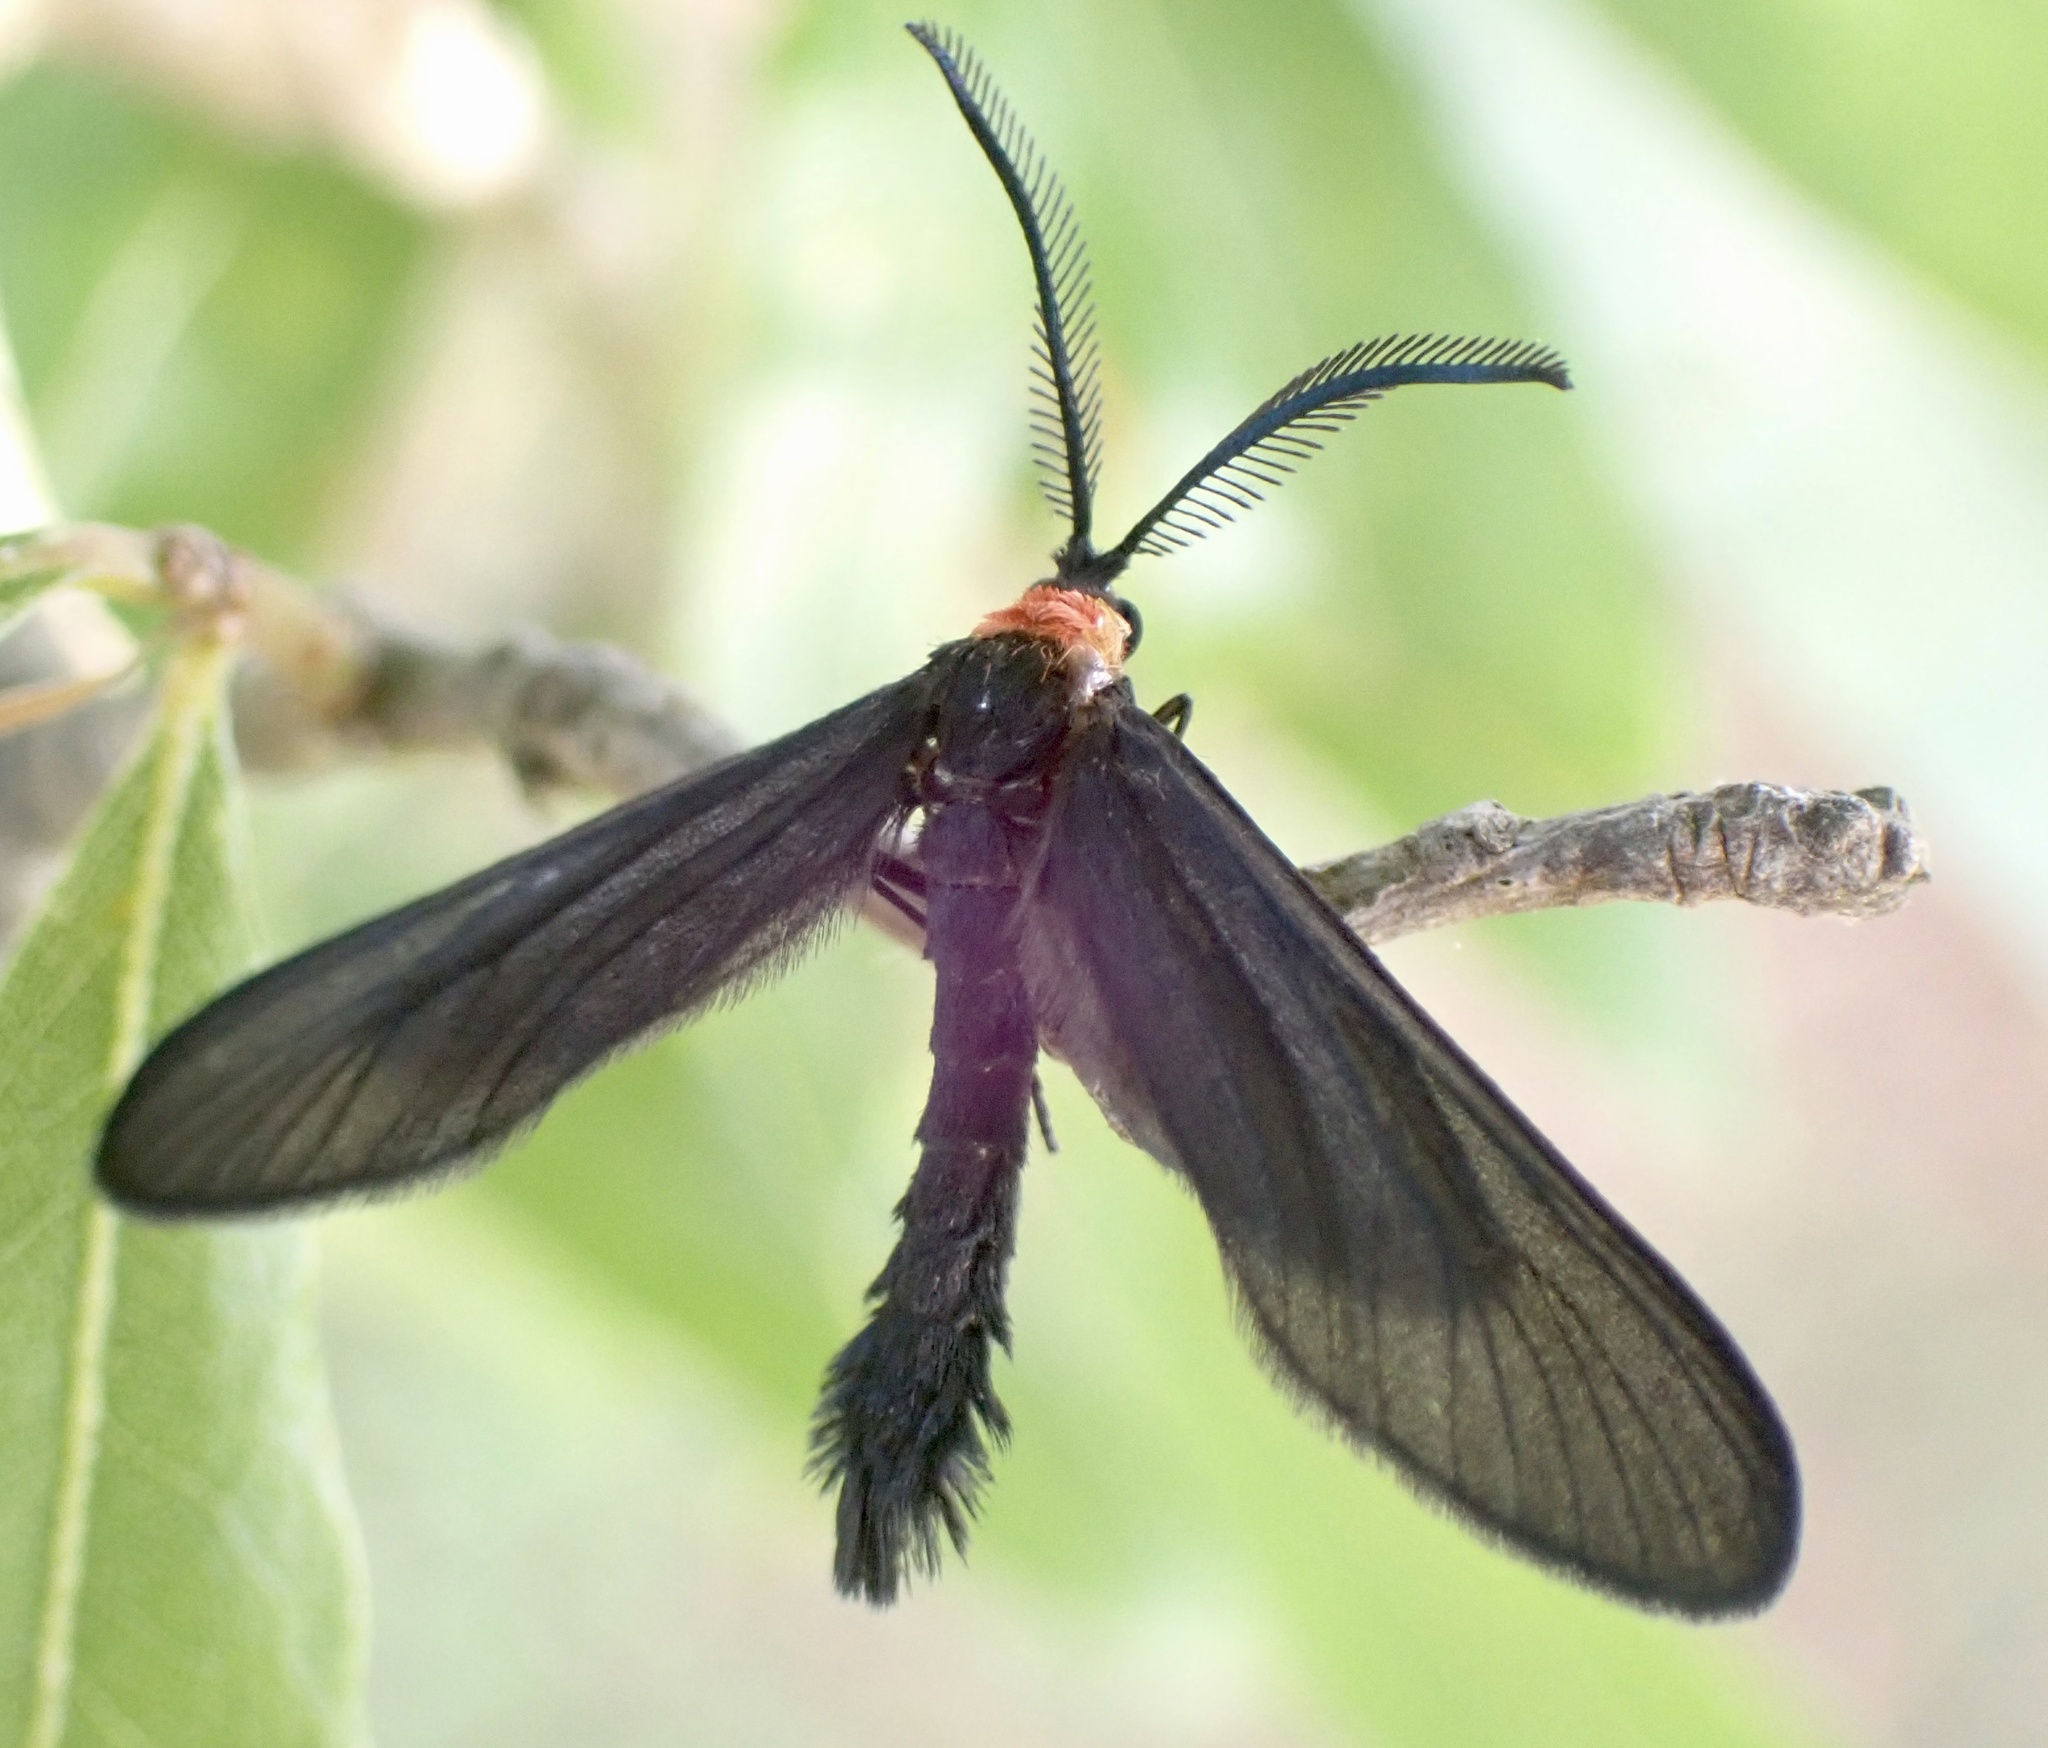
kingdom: Animalia
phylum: Arthropoda
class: Insecta
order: Lepidoptera
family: Zygaenidae
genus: Harrisina
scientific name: Harrisina americana
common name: Grapeleaf skeletonizer moth
